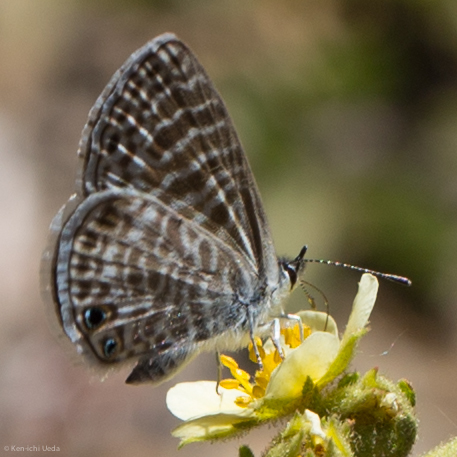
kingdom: Animalia
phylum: Arthropoda
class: Insecta
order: Lepidoptera
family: Lycaenidae
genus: Leptotes
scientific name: Leptotes marina
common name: Marine blue
